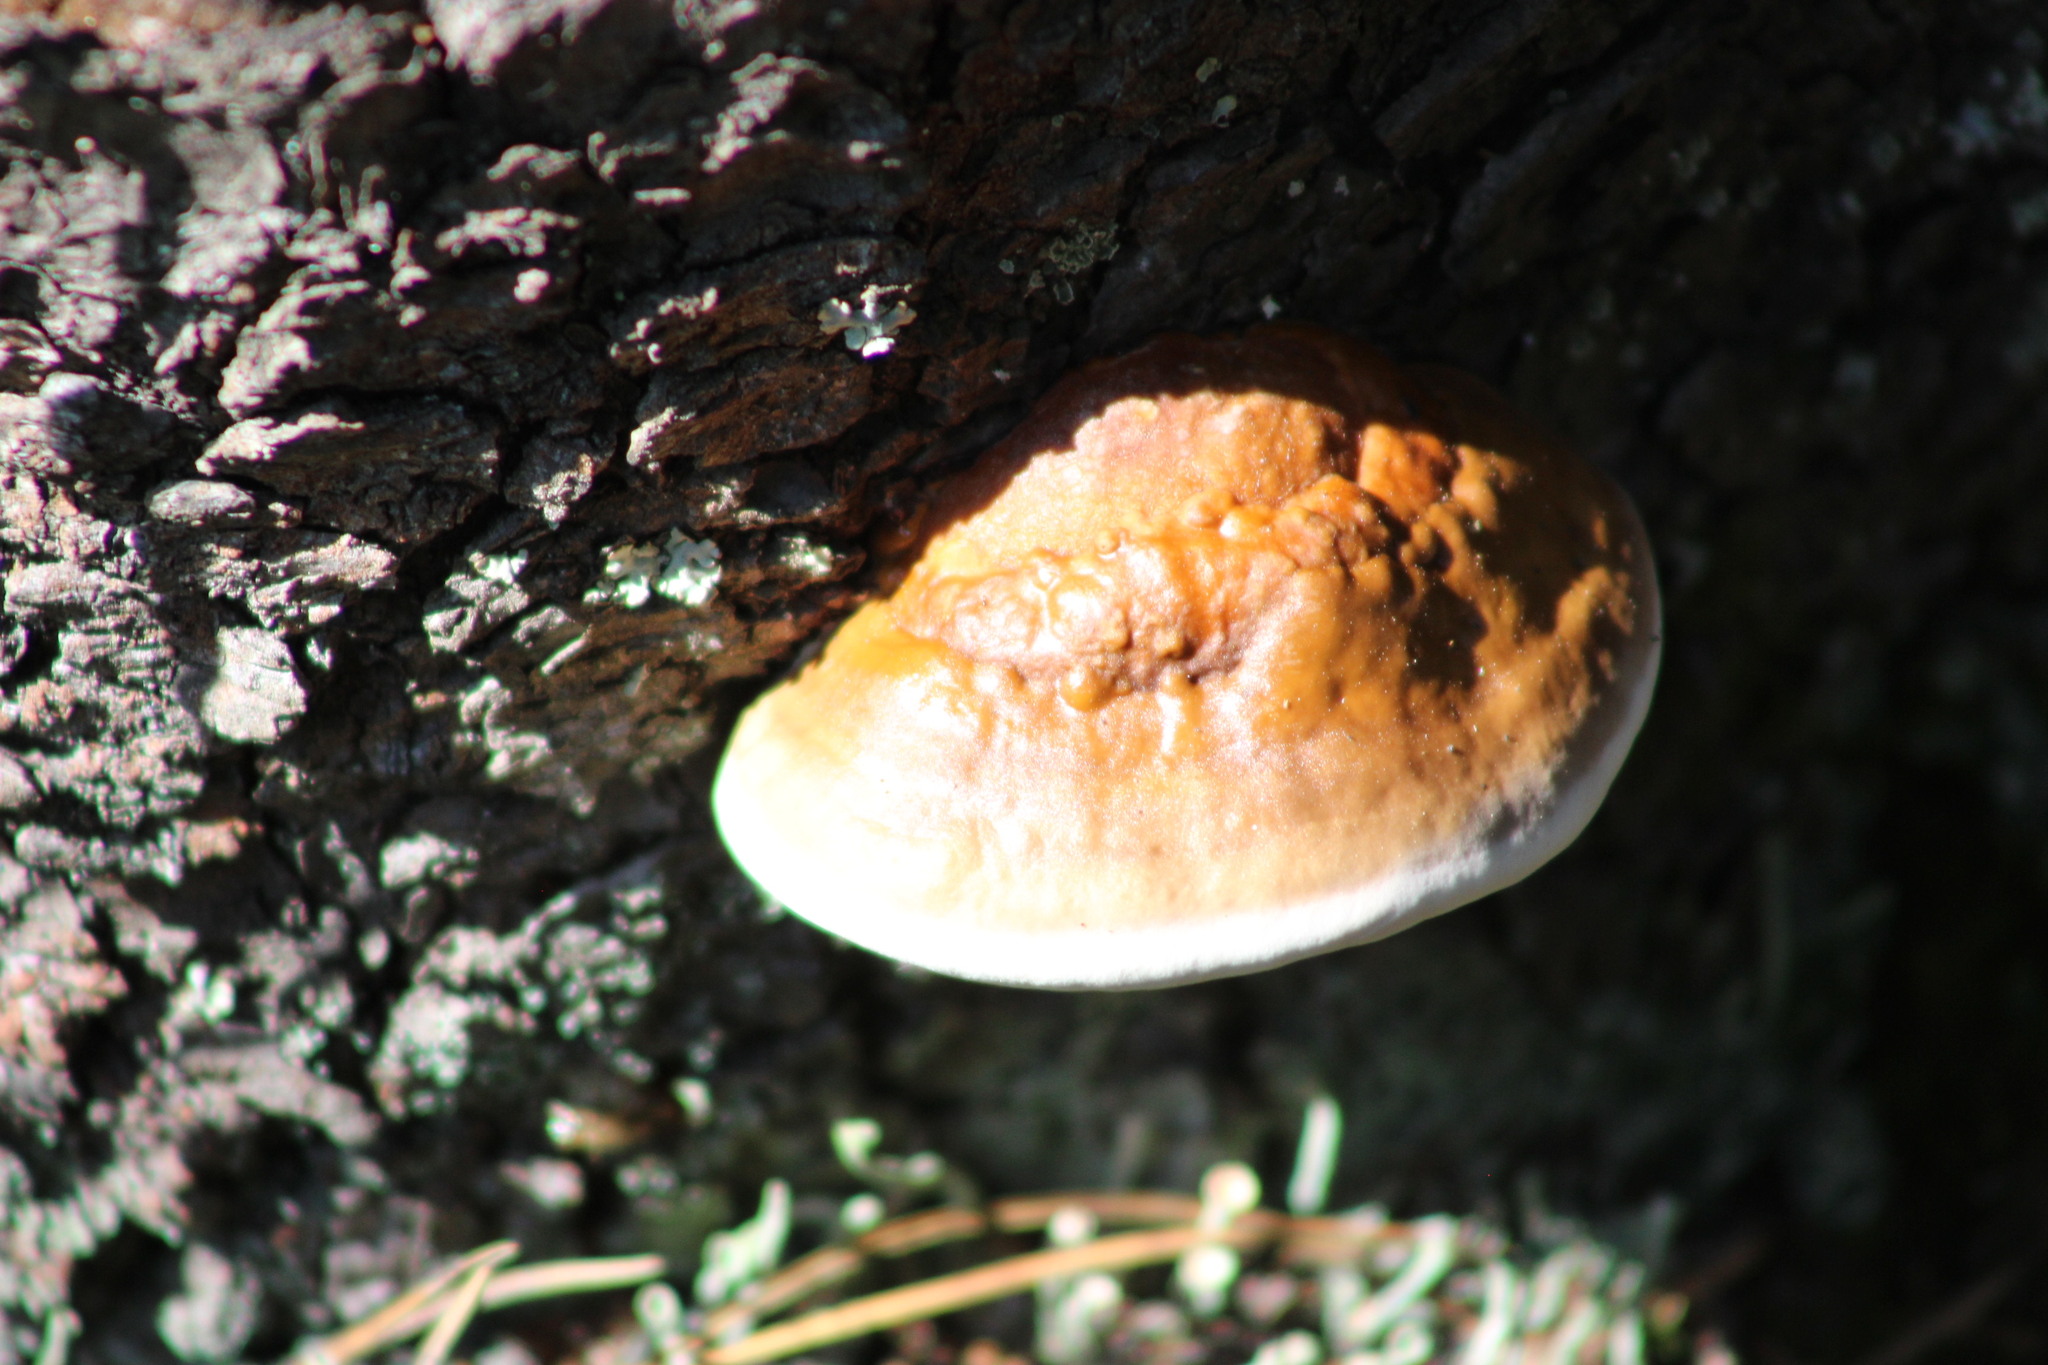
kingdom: Fungi
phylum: Basidiomycota
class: Agaricomycetes
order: Polyporales
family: Fomitopsidaceae
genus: Fomitopsis
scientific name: Fomitopsis pinicola
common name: Red-belted bracket
